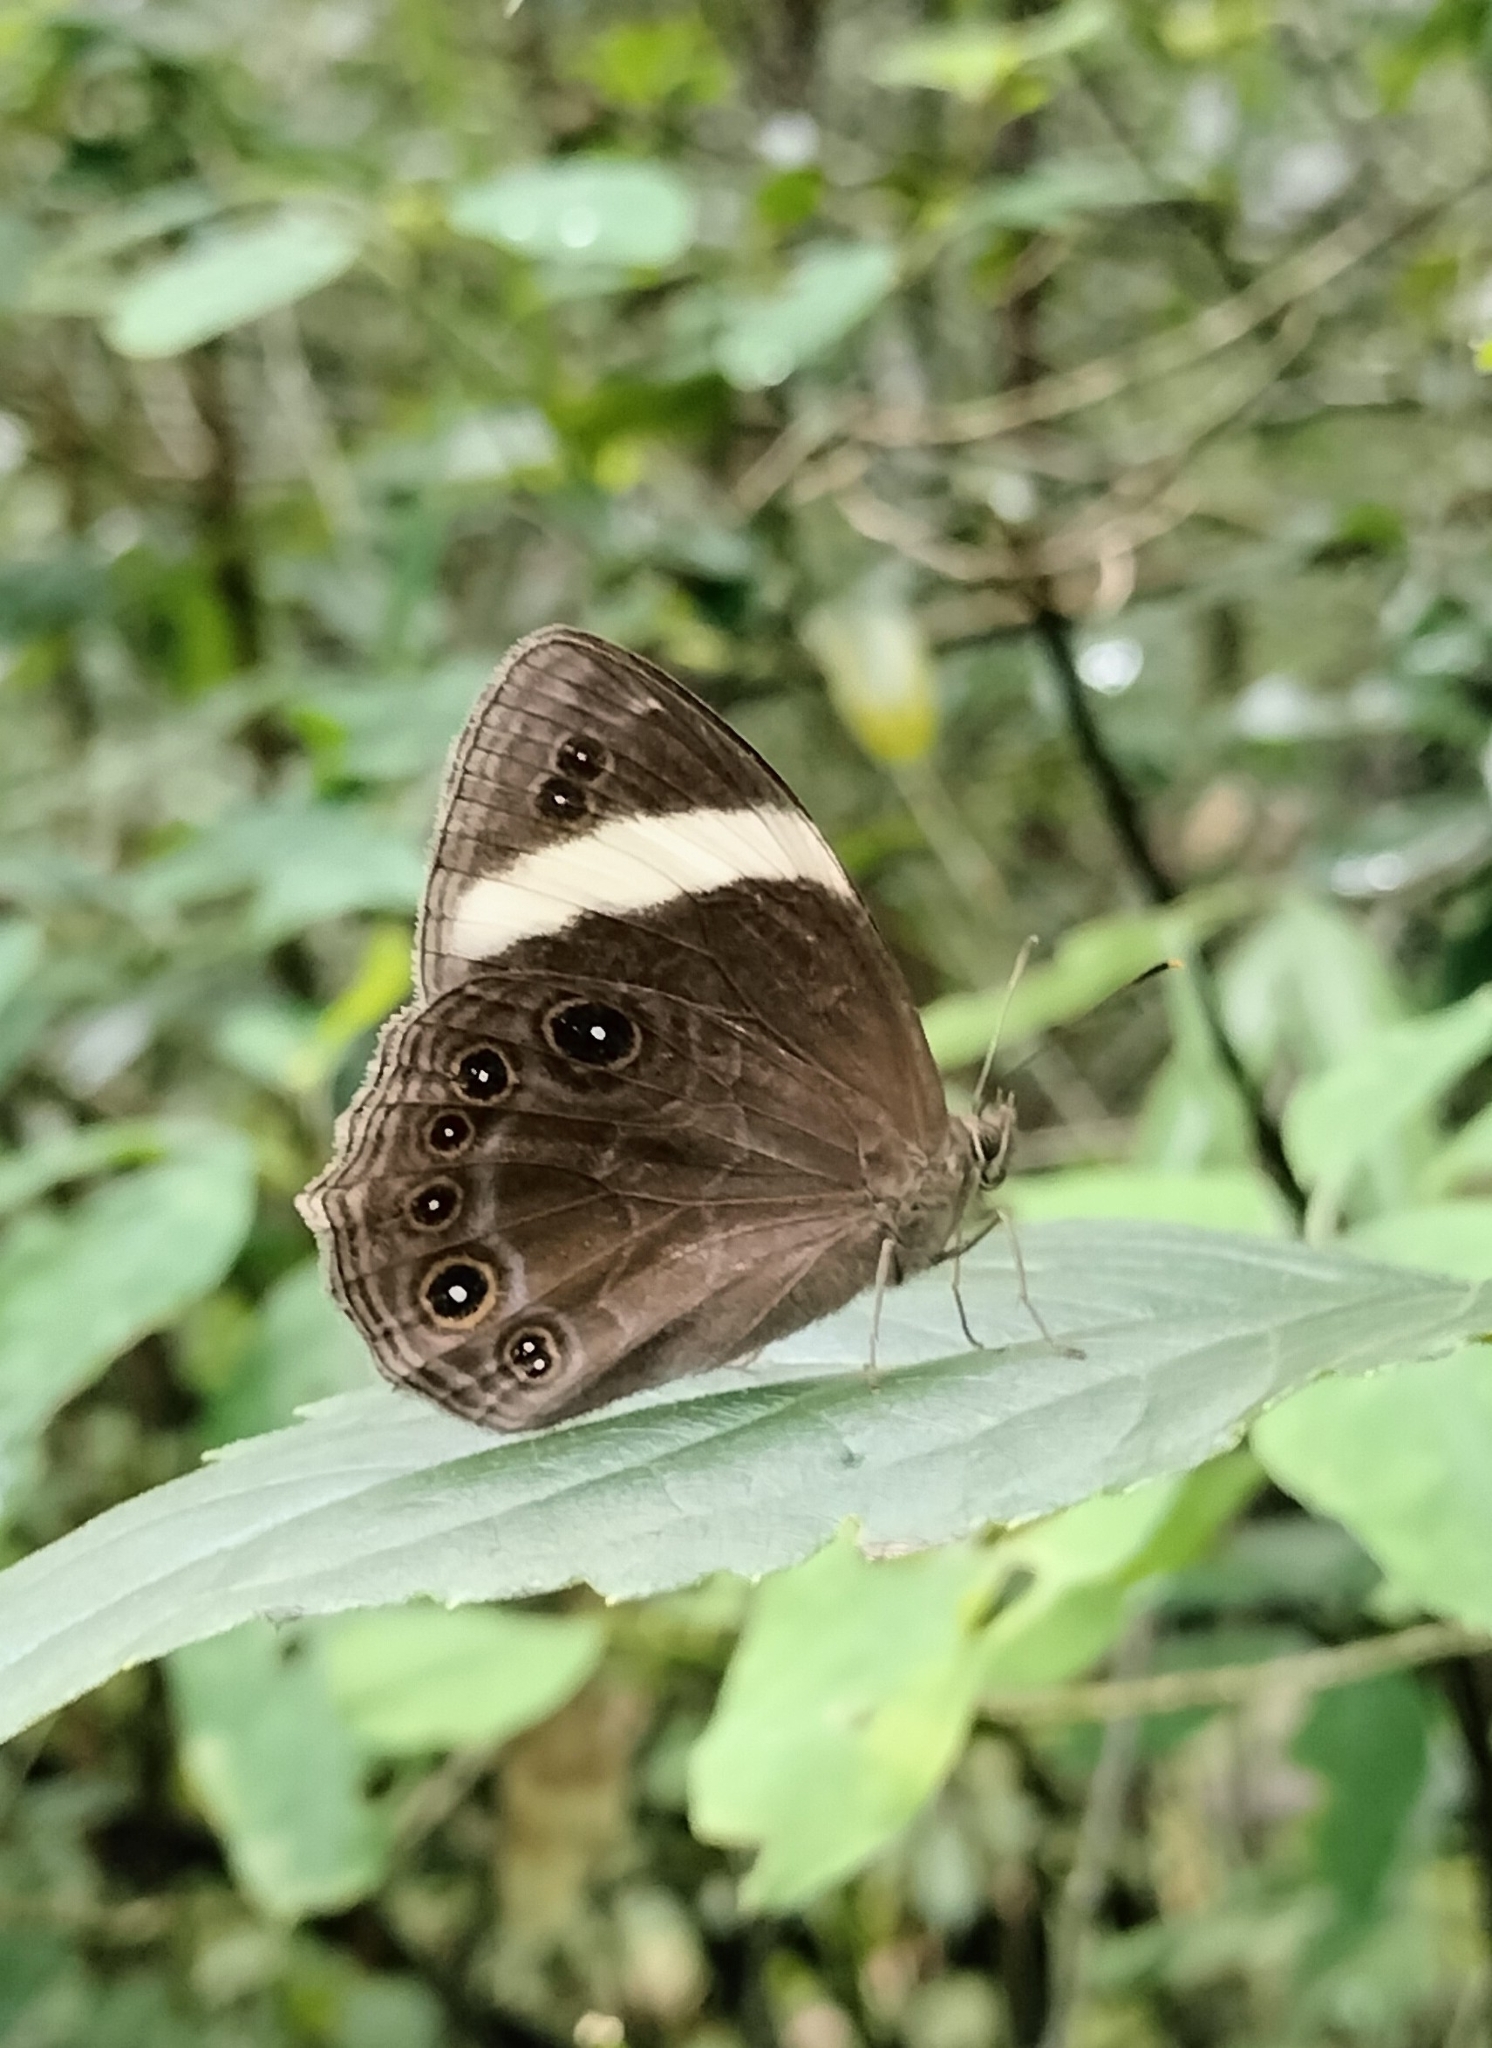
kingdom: Animalia
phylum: Arthropoda
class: Insecta
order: Lepidoptera
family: Nymphalidae
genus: Lethe
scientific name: Lethe verma
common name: Straight-banded treebrown
